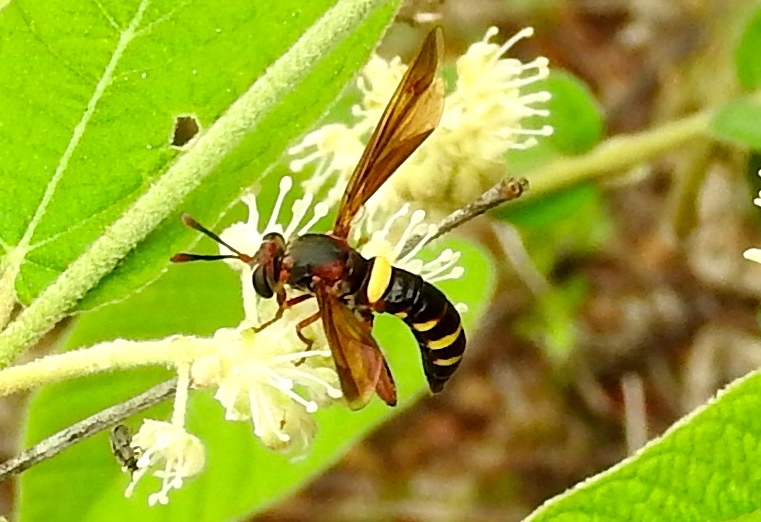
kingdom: Animalia
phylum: Arthropoda
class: Insecta
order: Diptera
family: Mydidae
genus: Mydas
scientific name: Mydas hardyi
